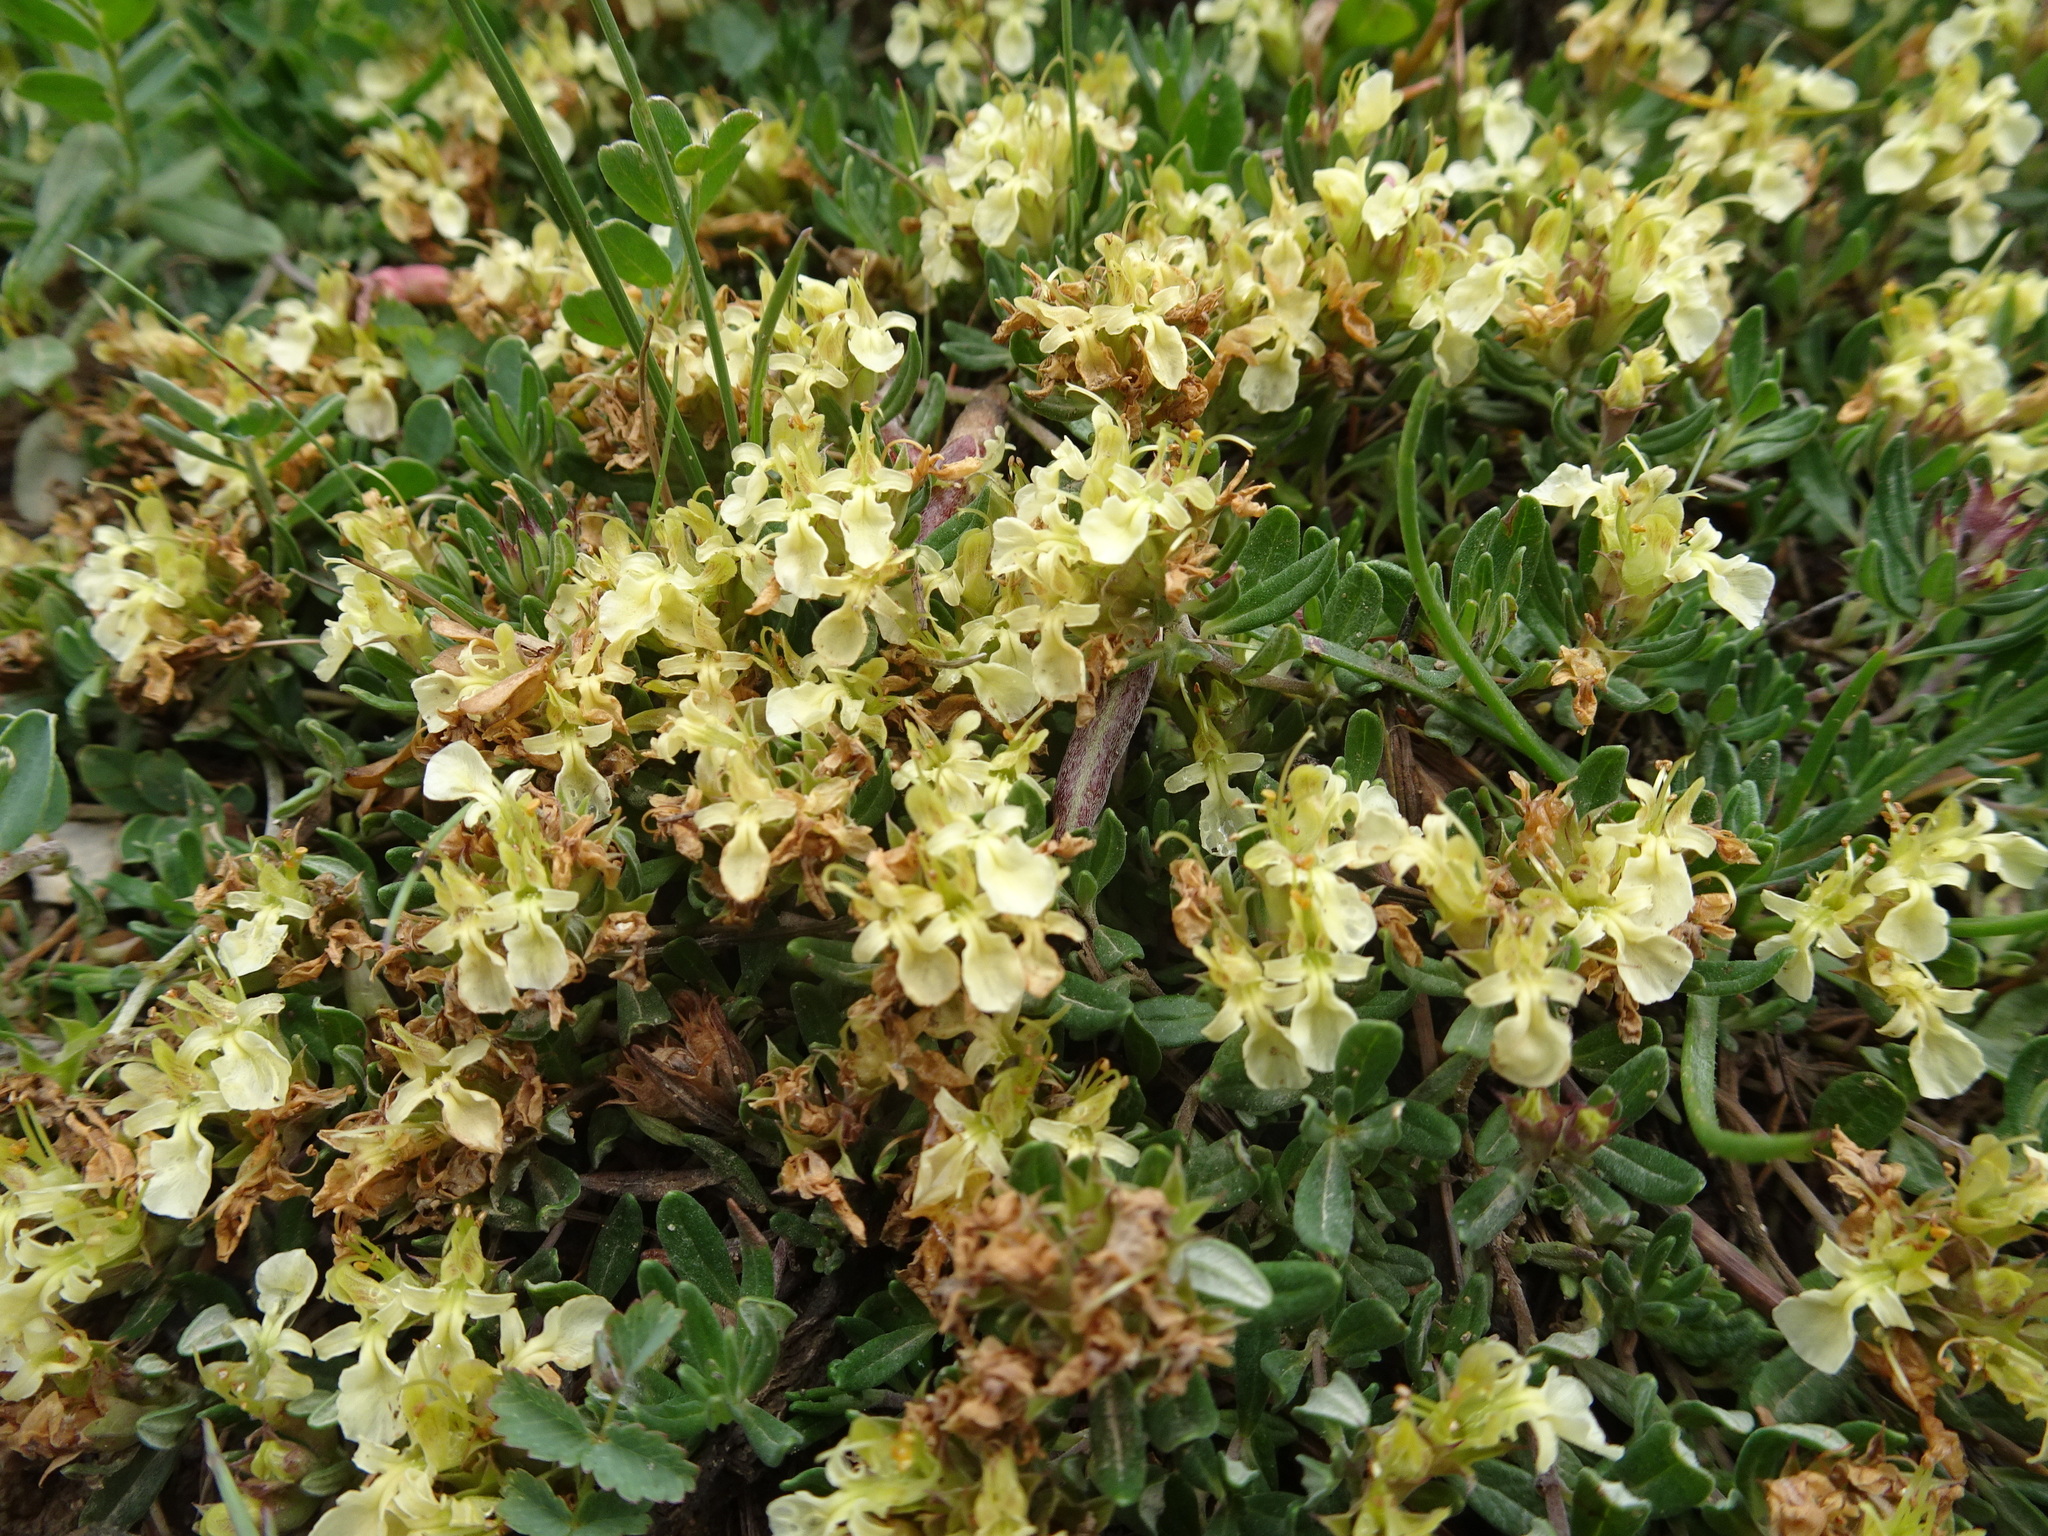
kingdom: Plantae
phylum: Tracheophyta
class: Magnoliopsida
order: Lamiales
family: Lamiaceae
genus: Teucrium
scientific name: Teucrium montanum
